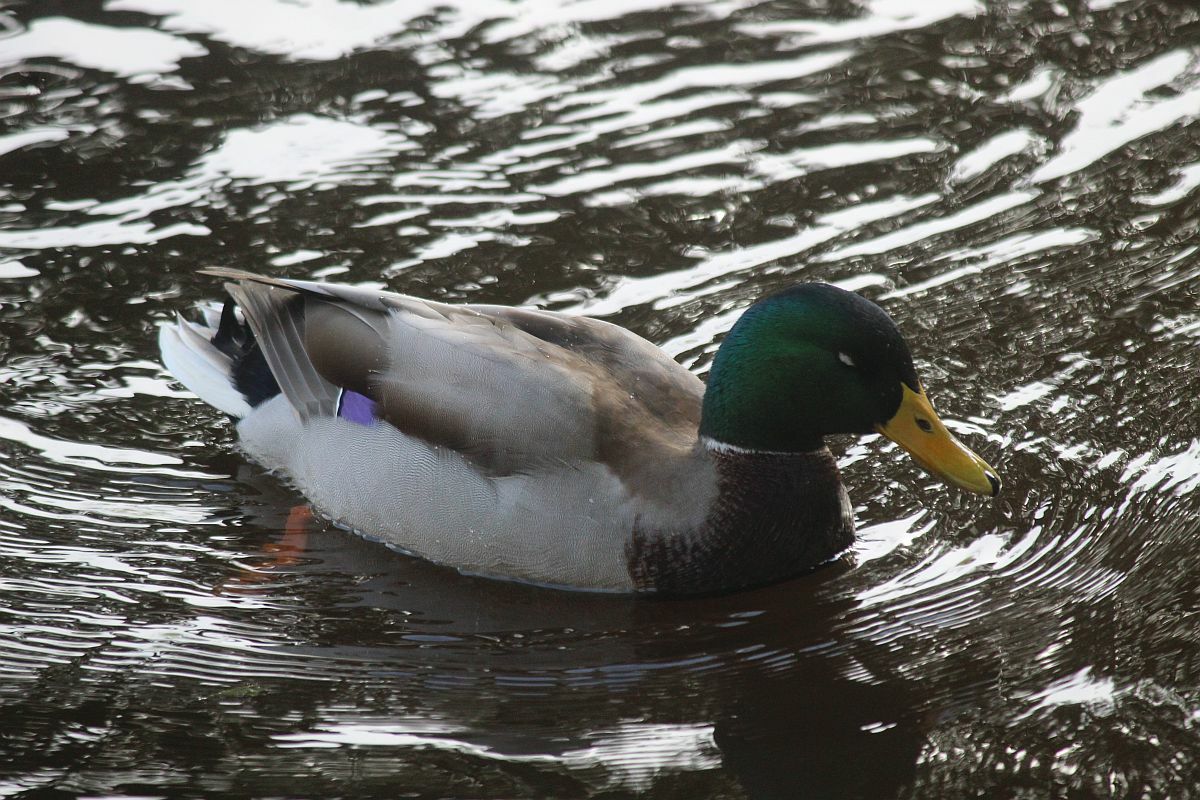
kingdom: Animalia
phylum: Chordata
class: Aves
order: Anseriformes
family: Anatidae
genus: Anas
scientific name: Anas platyrhynchos
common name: Mallard
